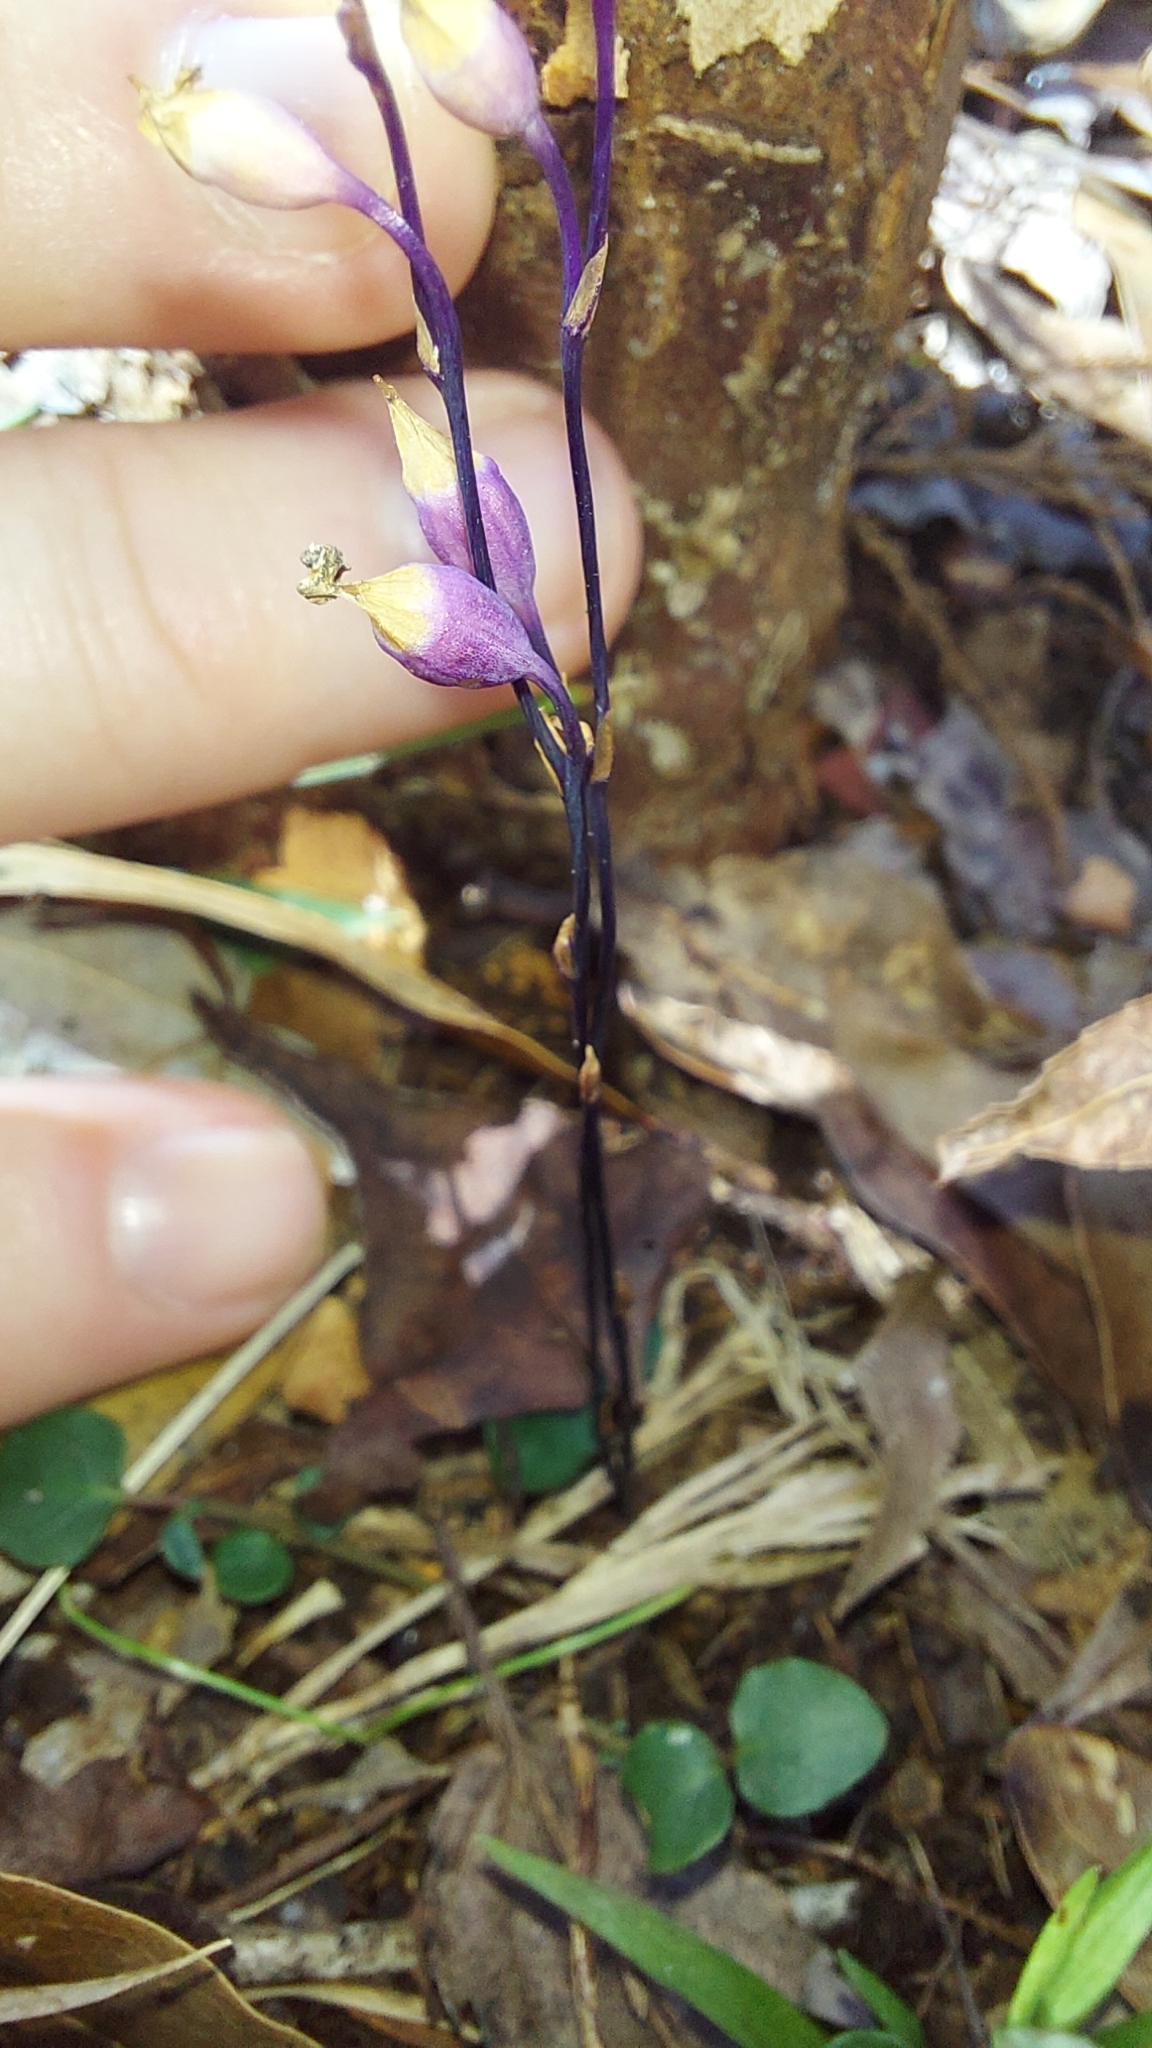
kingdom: Plantae
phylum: Tracheophyta
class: Liliopsida
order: Dioscoreales
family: Burmanniaceae
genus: Apteria
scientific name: Apteria aphylla
